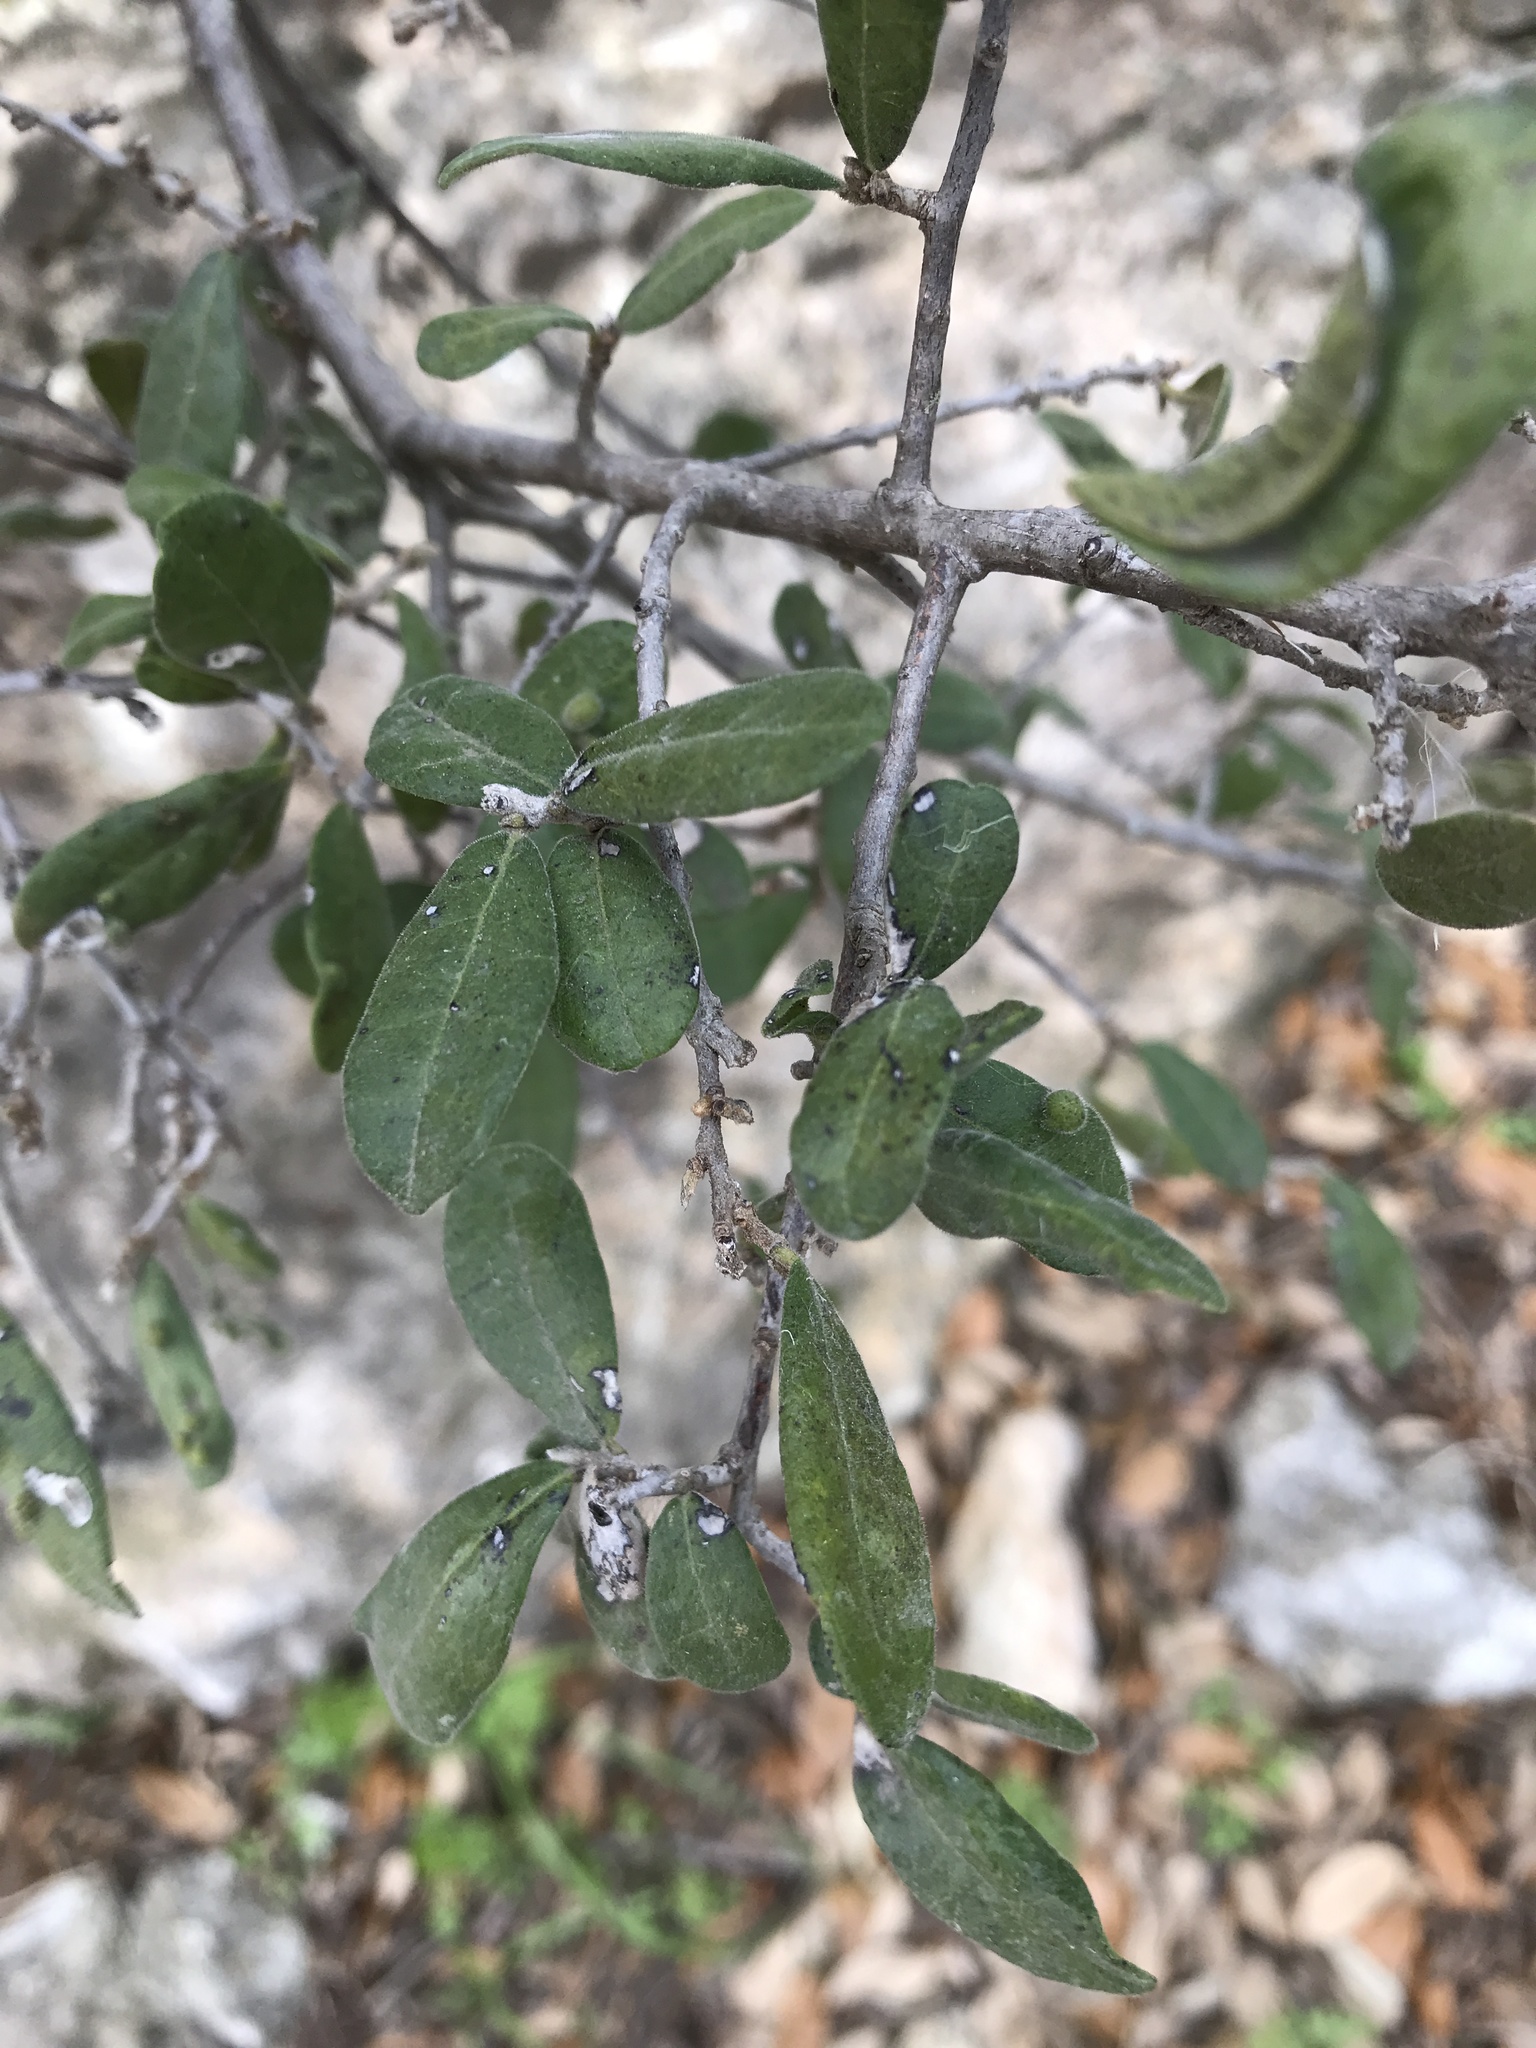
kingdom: Plantae
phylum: Tracheophyta
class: Magnoliopsida
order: Ericales
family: Ebenaceae
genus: Diospyros
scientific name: Diospyros texana
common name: Texas persimmon
